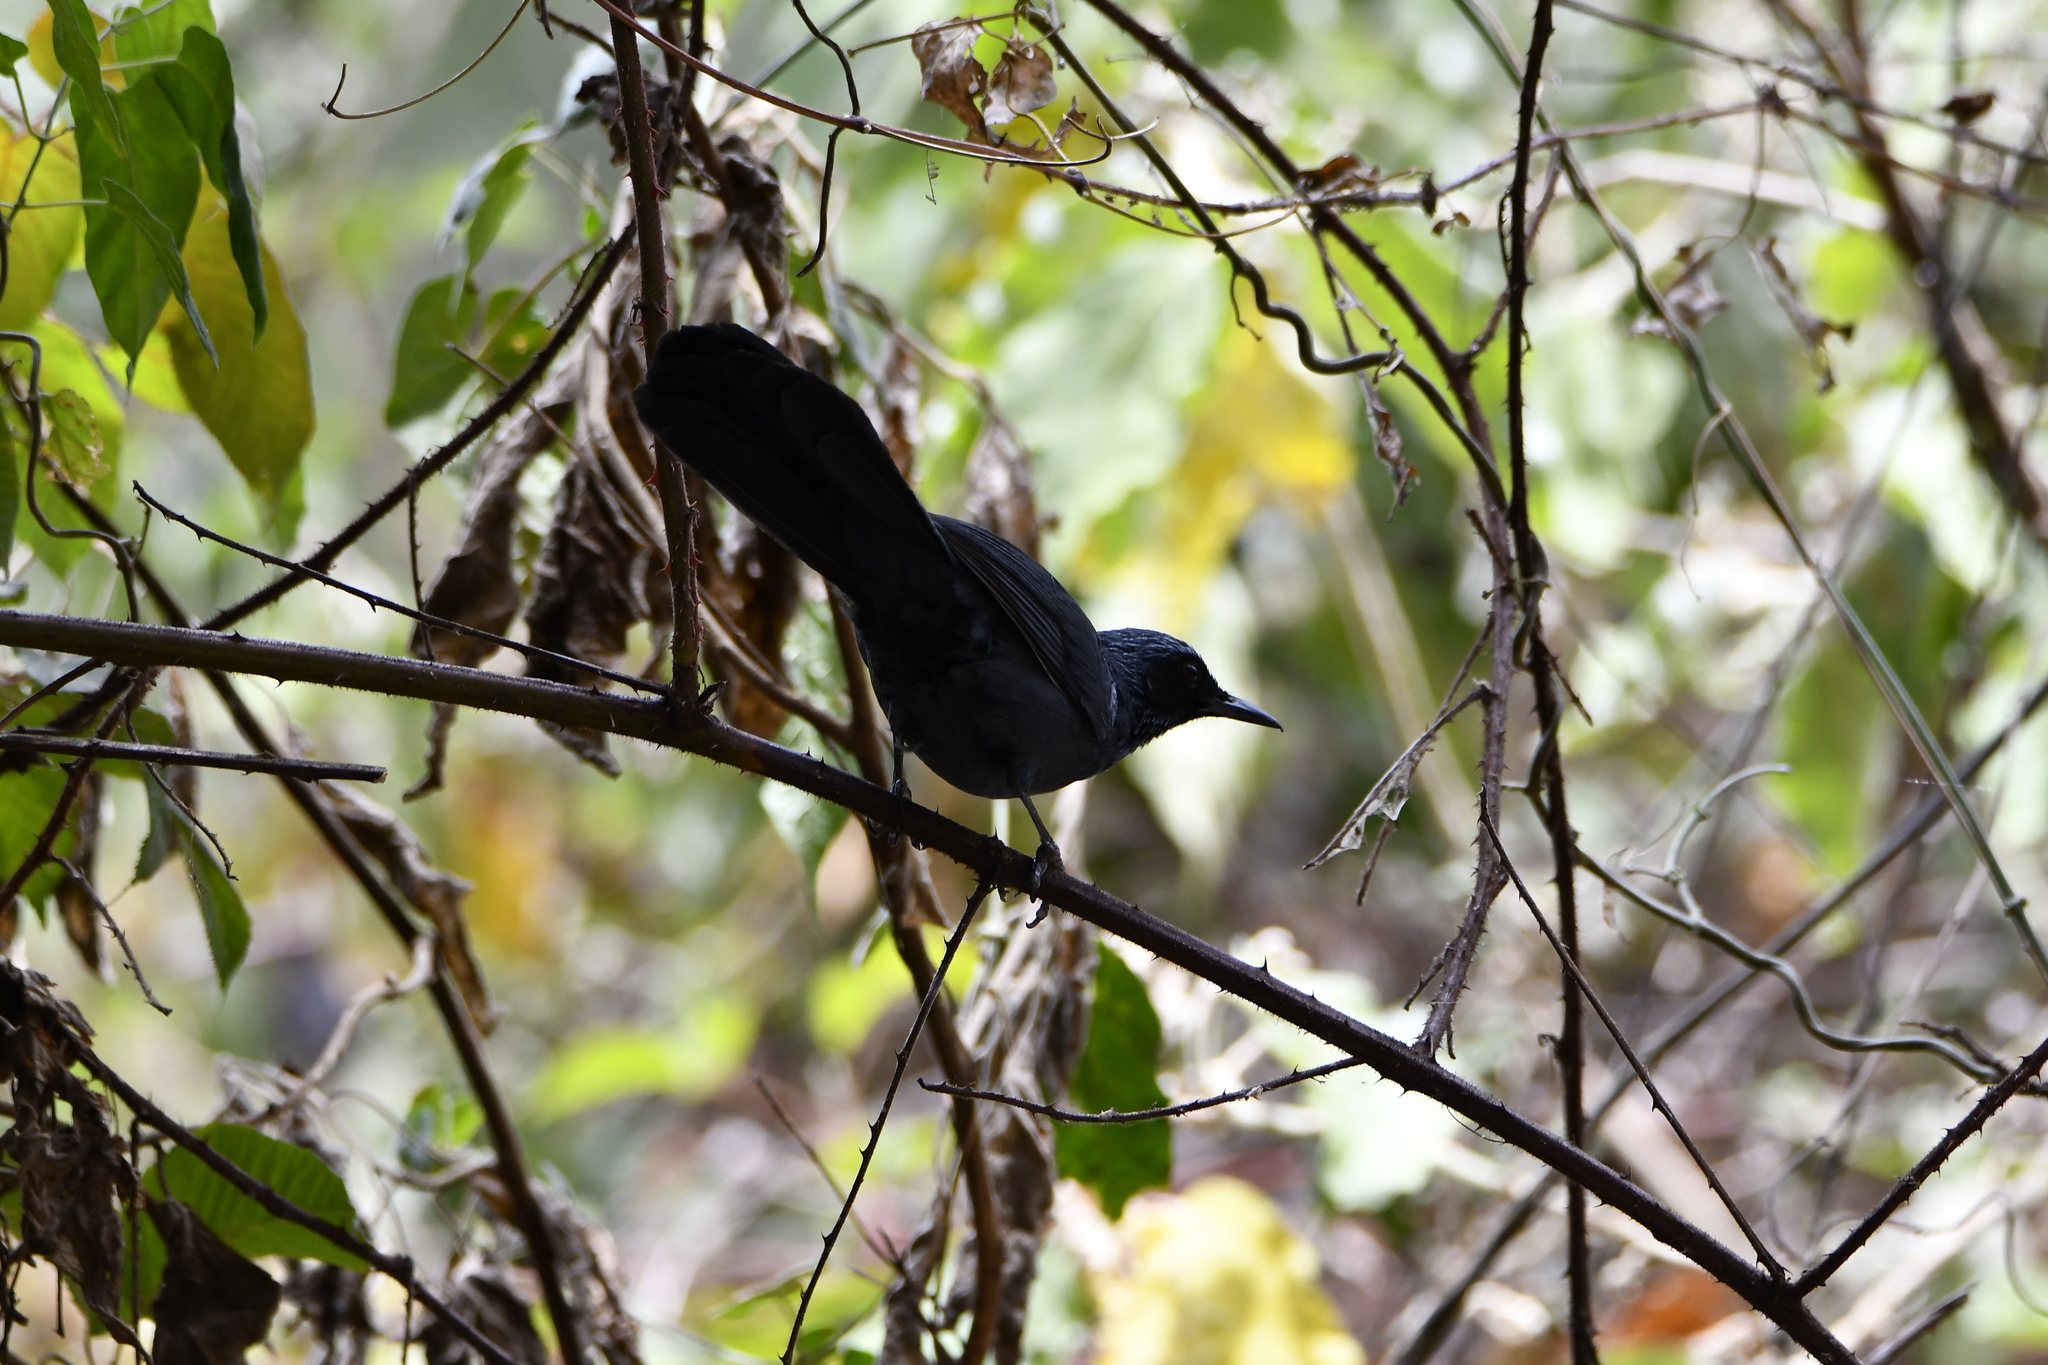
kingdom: Animalia
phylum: Chordata
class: Aves
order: Passeriformes
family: Mimidae
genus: Melanotis
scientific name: Melanotis caerulescens
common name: Blue mockingbird
